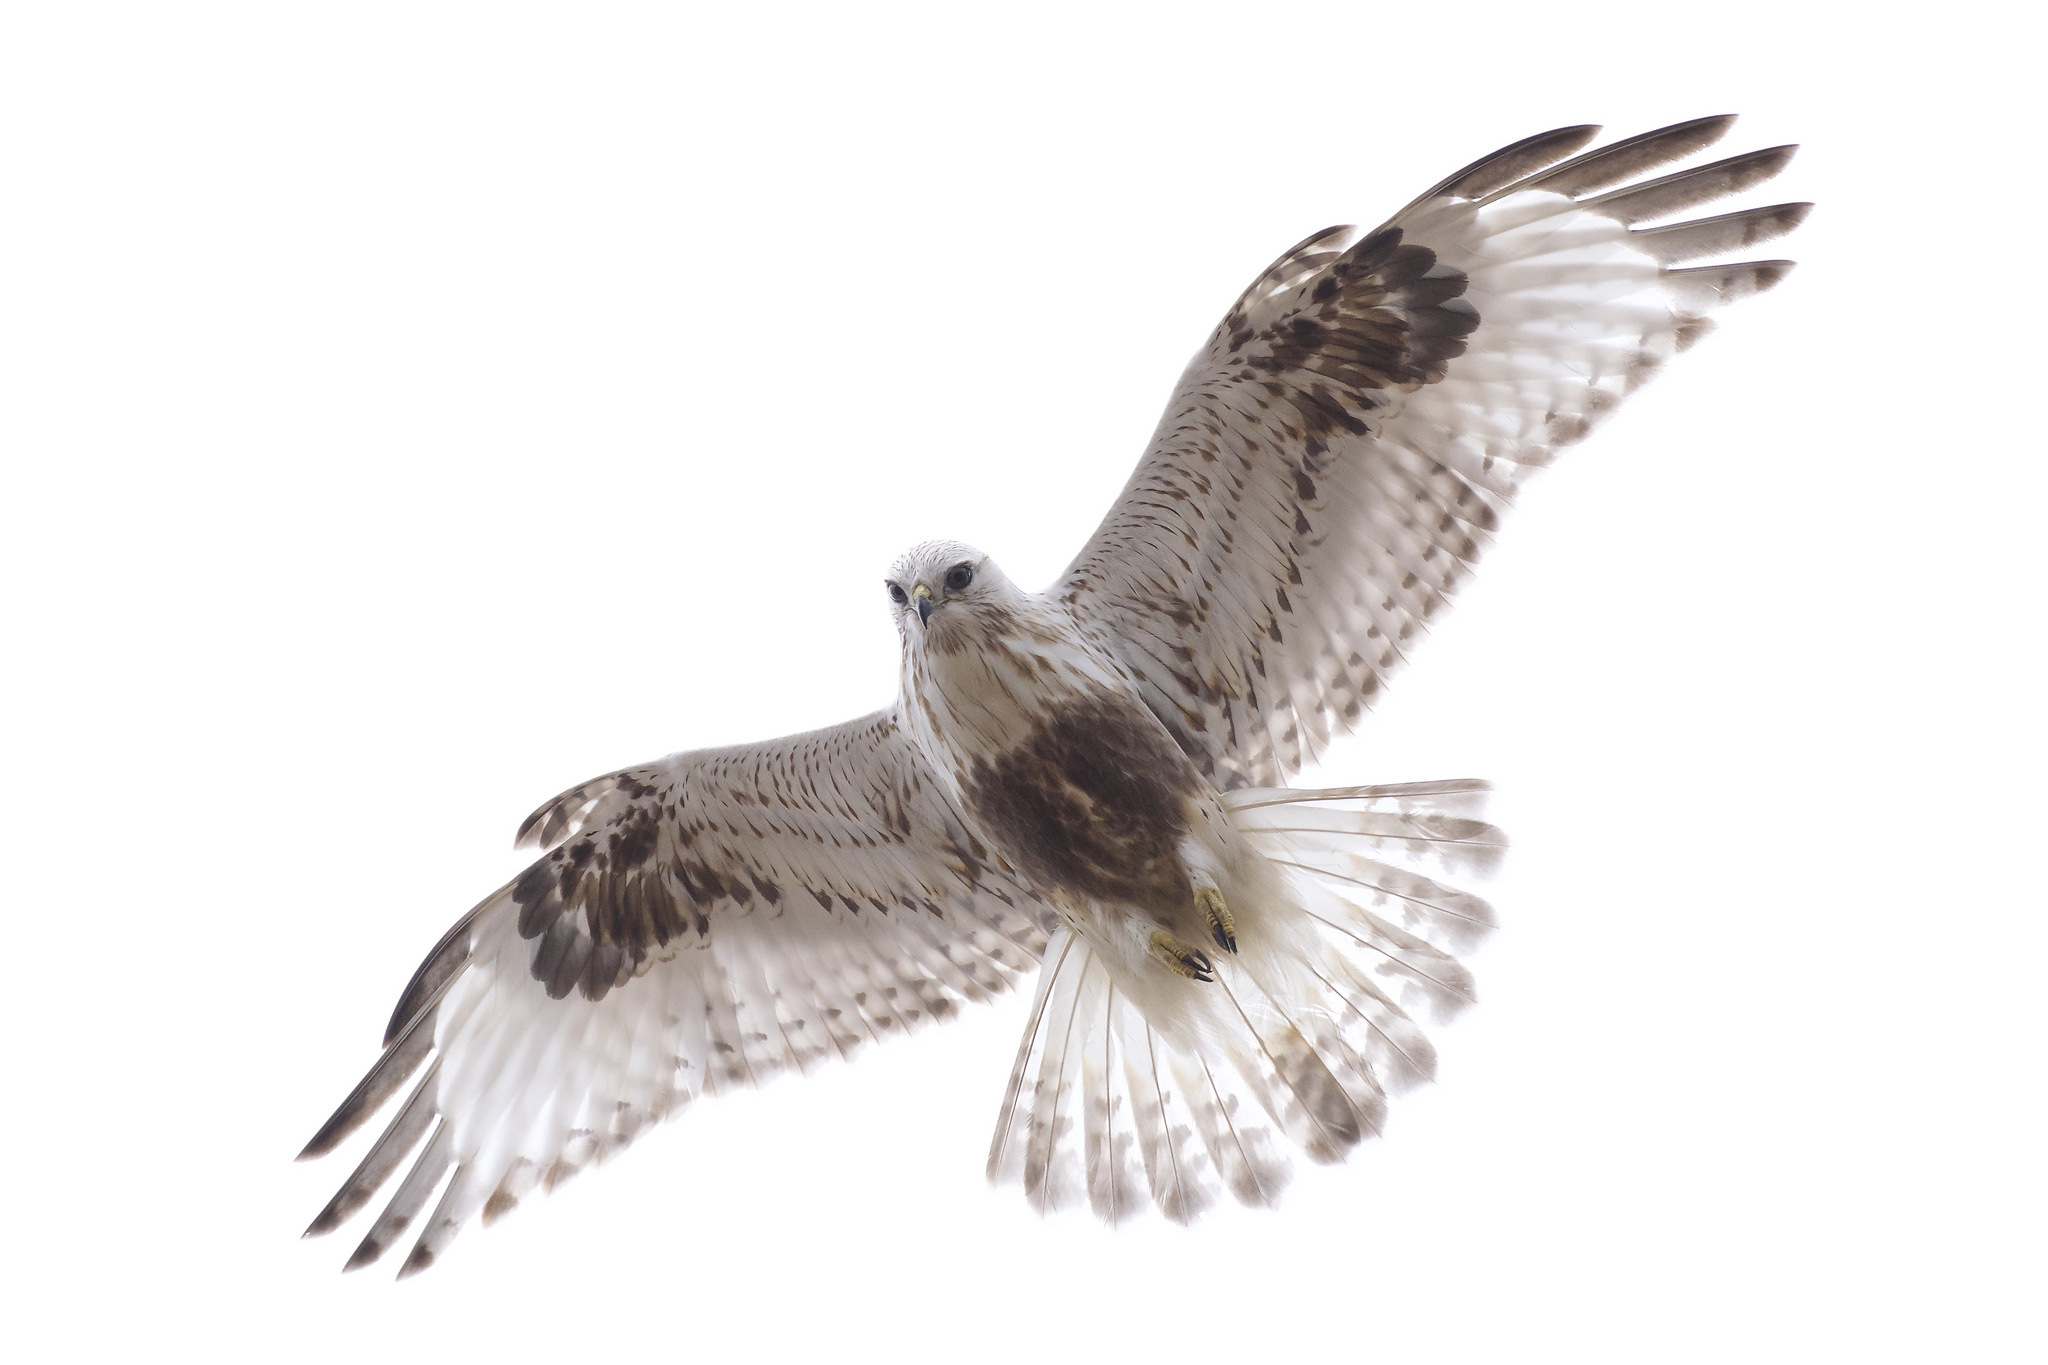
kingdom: Animalia
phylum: Chordata
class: Aves
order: Accipitriformes
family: Accipitridae
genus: Buteo
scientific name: Buteo lagopus
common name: Rough-legged buzzard
